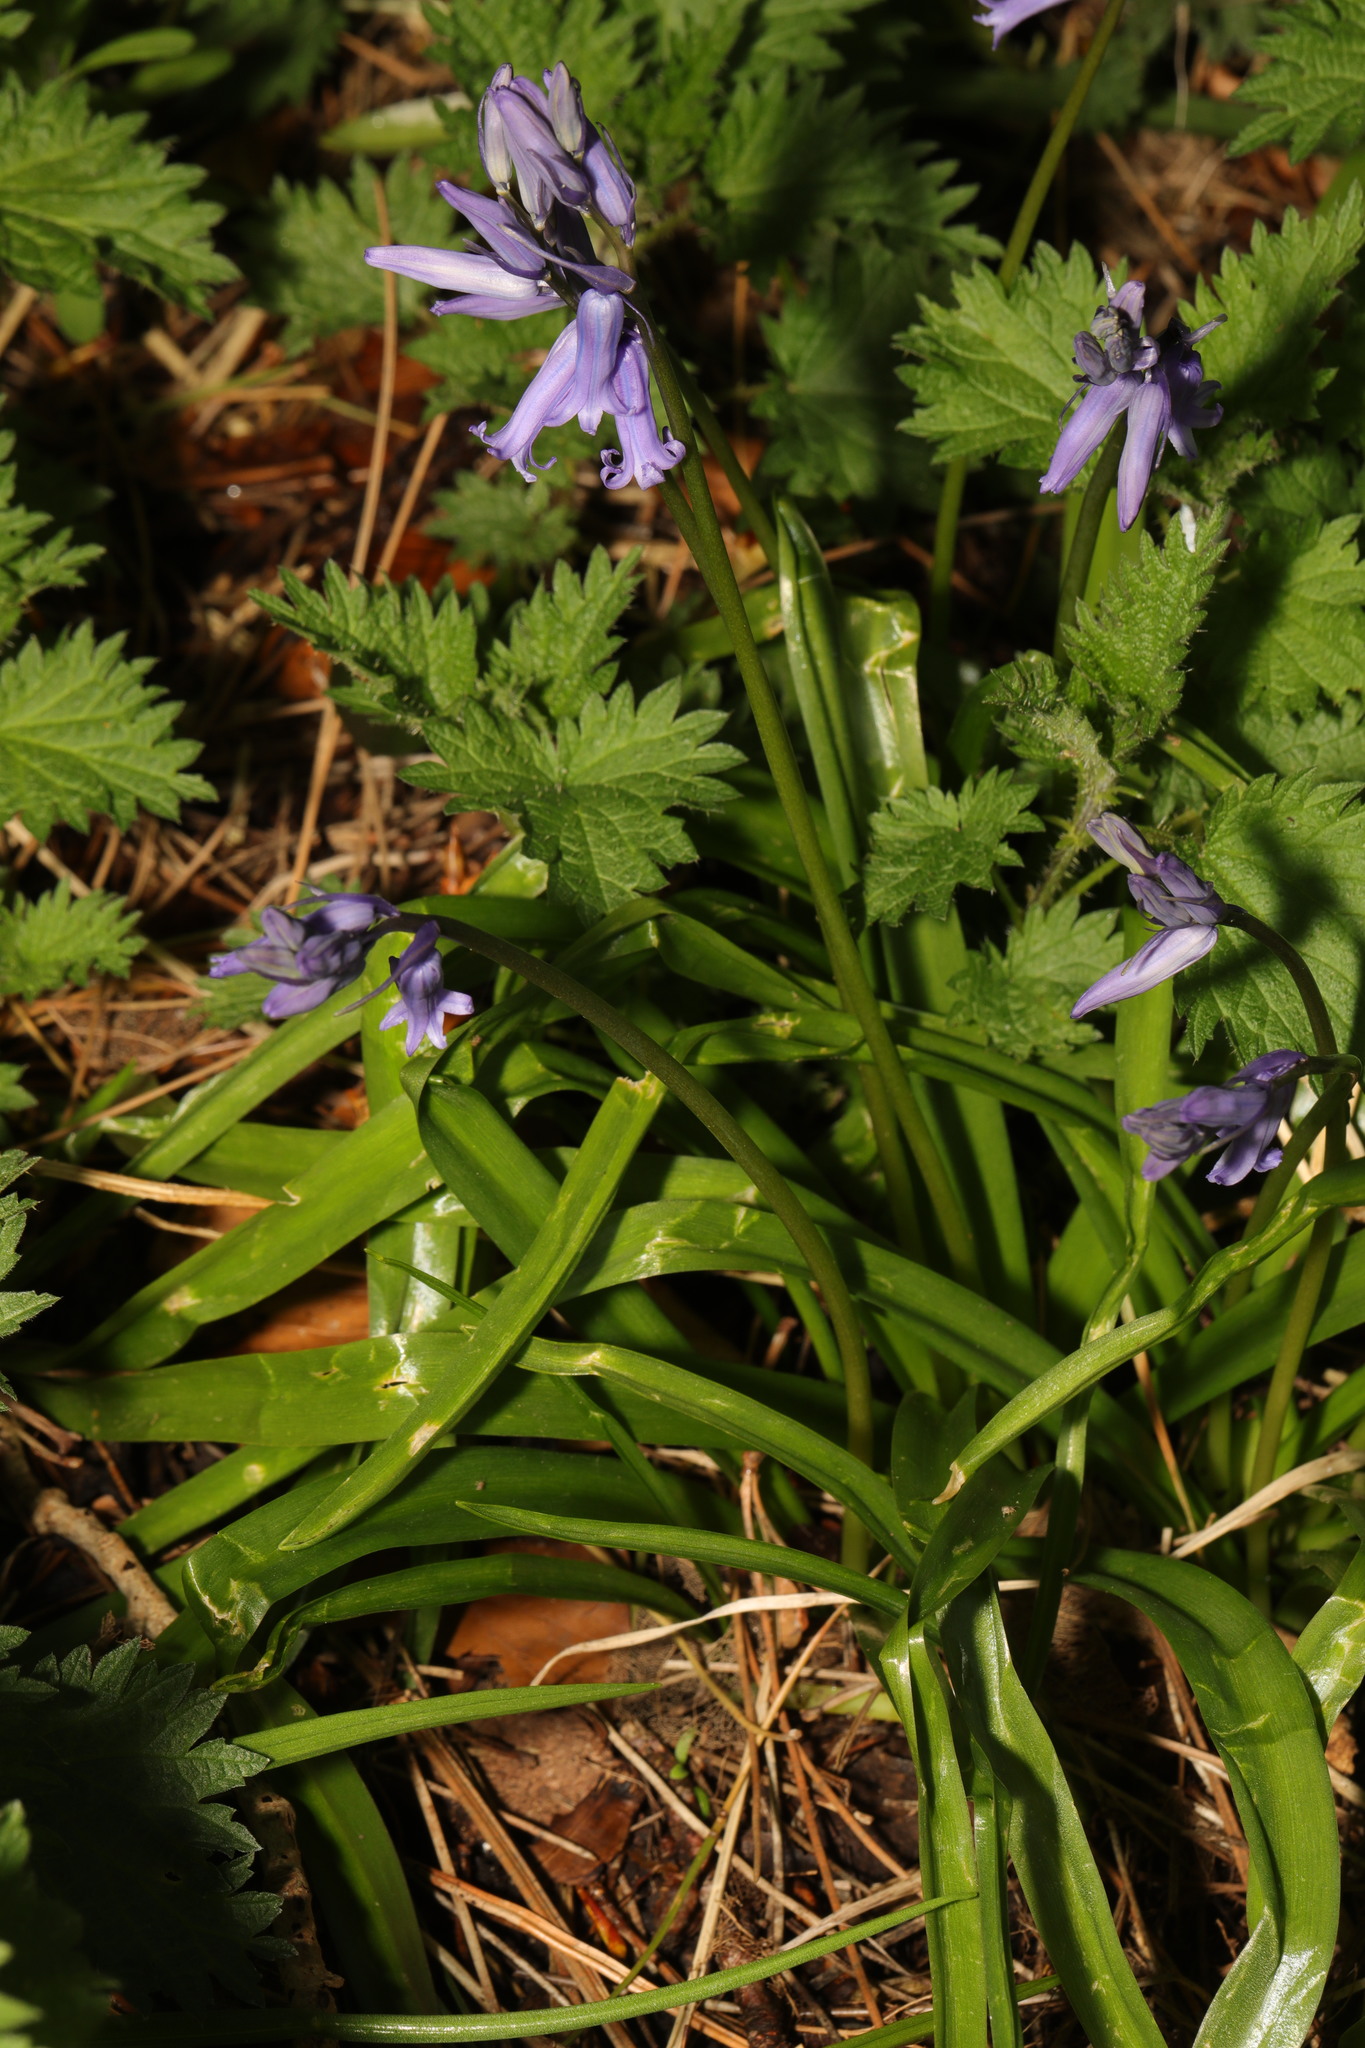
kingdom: Plantae
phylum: Tracheophyta
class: Liliopsida
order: Asparagales
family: Asparagaceae
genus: Hyacinthoides
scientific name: Hyacinthoides non-scripta
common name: Bluebell
